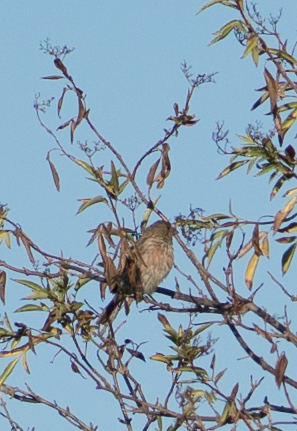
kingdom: Animalia
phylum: Chordata
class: Aves
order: Passeriformes
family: Fringillidae
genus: Haemorhous
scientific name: Haemorhous mexicanus
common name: House finch
